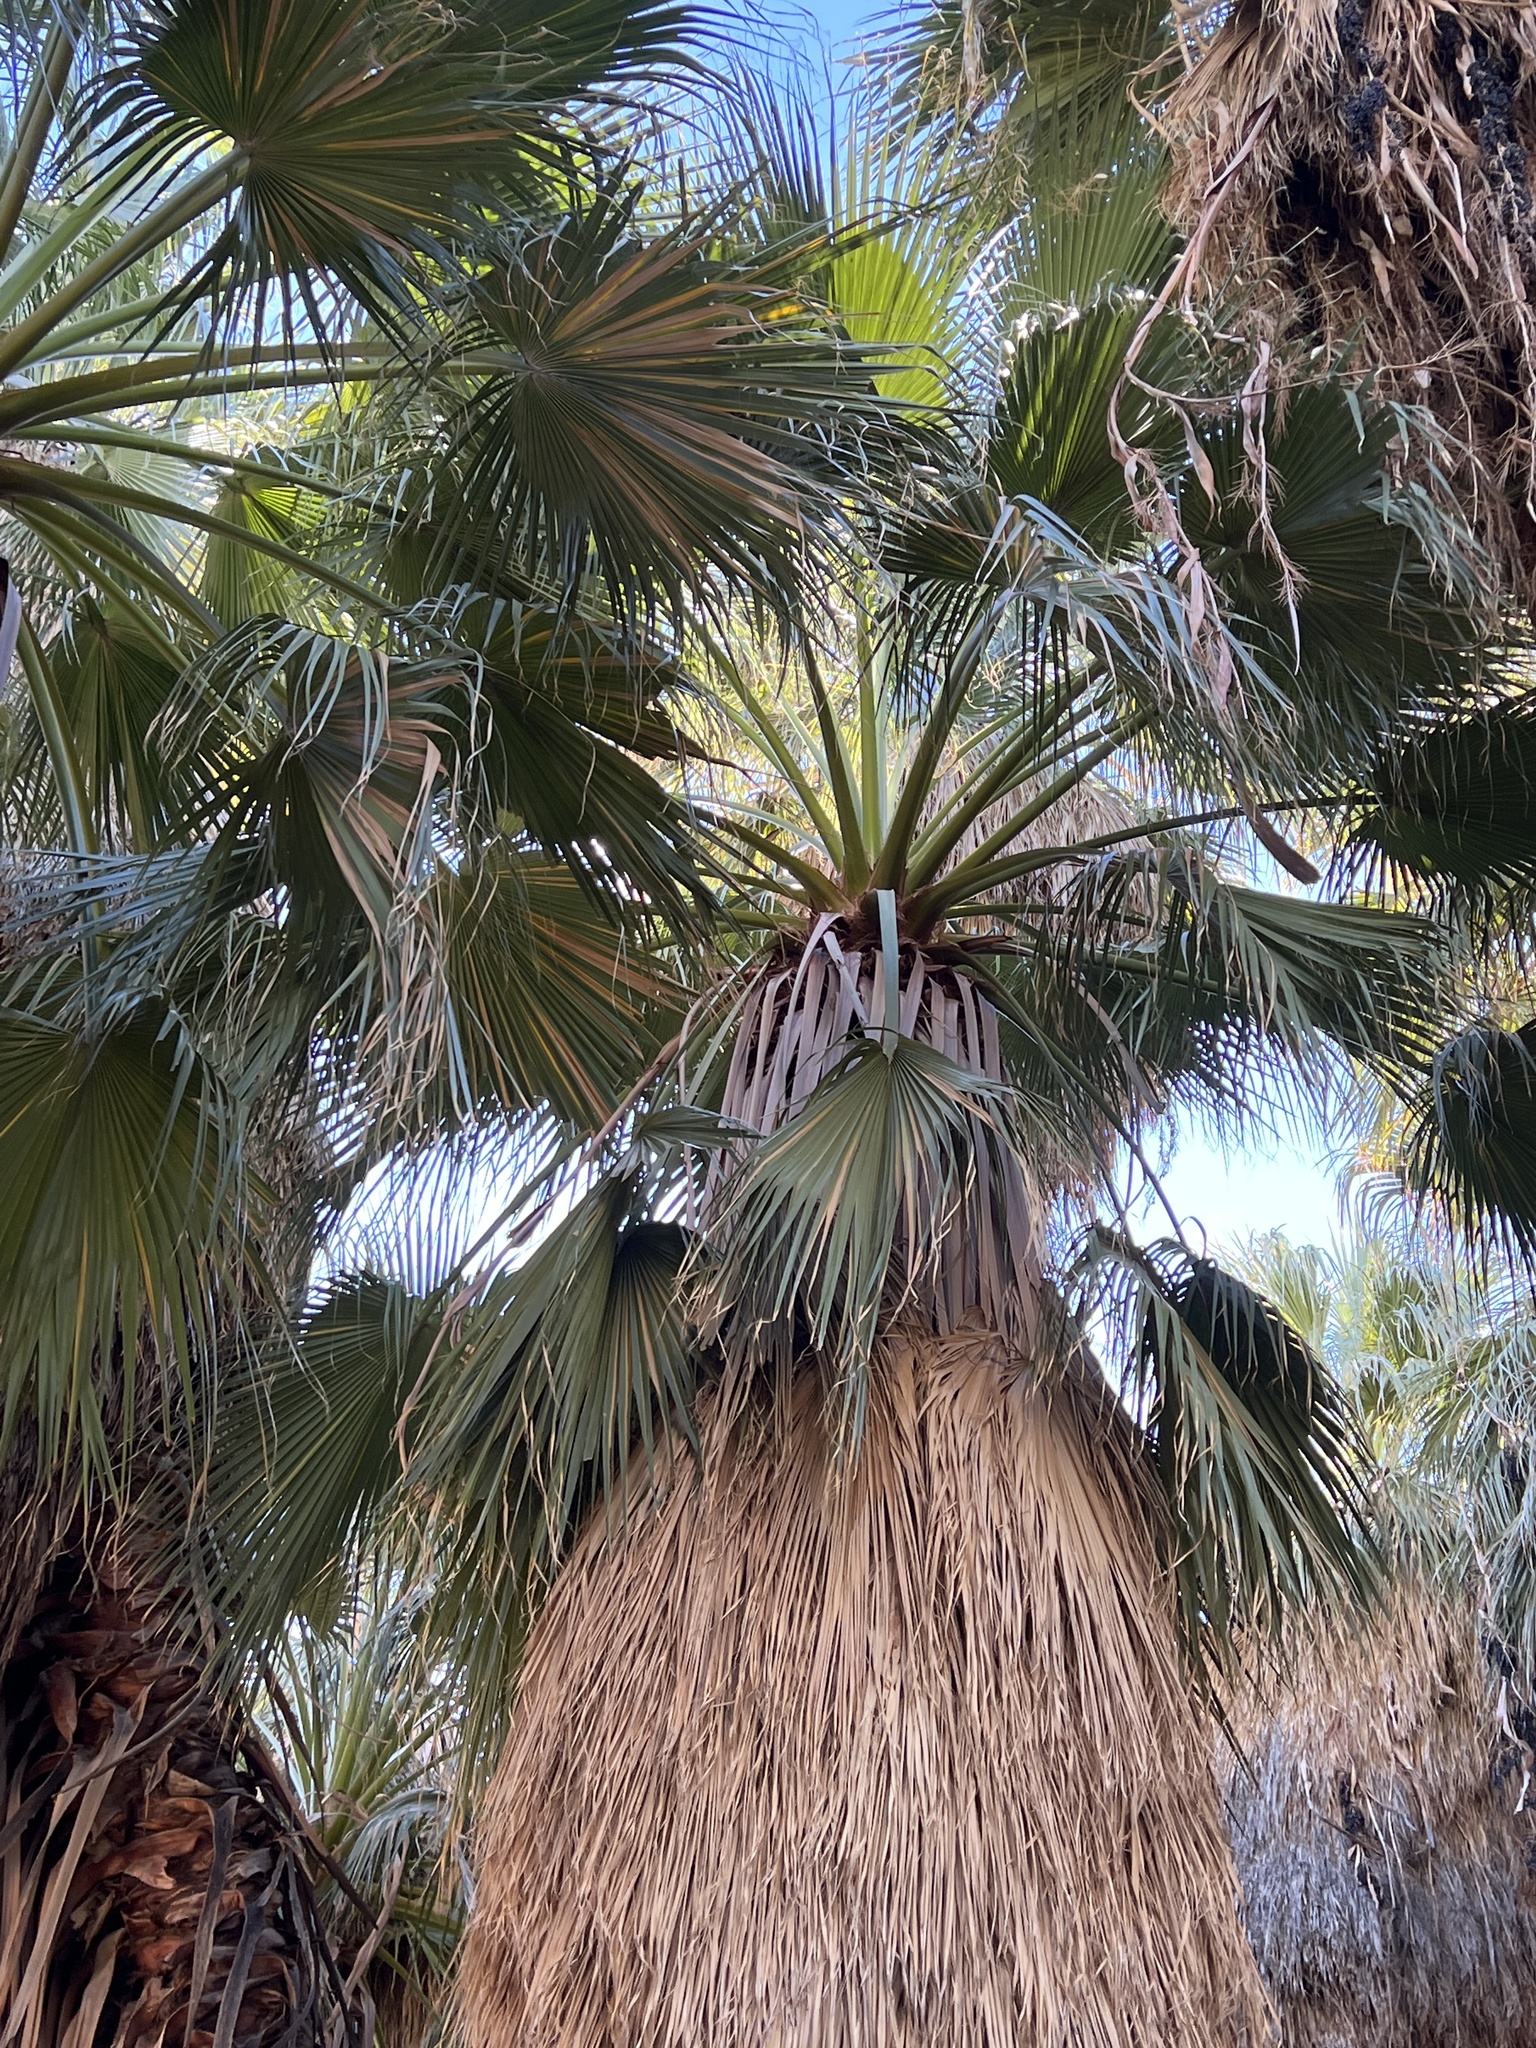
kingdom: Plantae
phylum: Tracheophyta
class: Liliopsida
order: Arecales
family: Arecaceae
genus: Washingtonia
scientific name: Washingtonia filifera
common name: California fan palm
